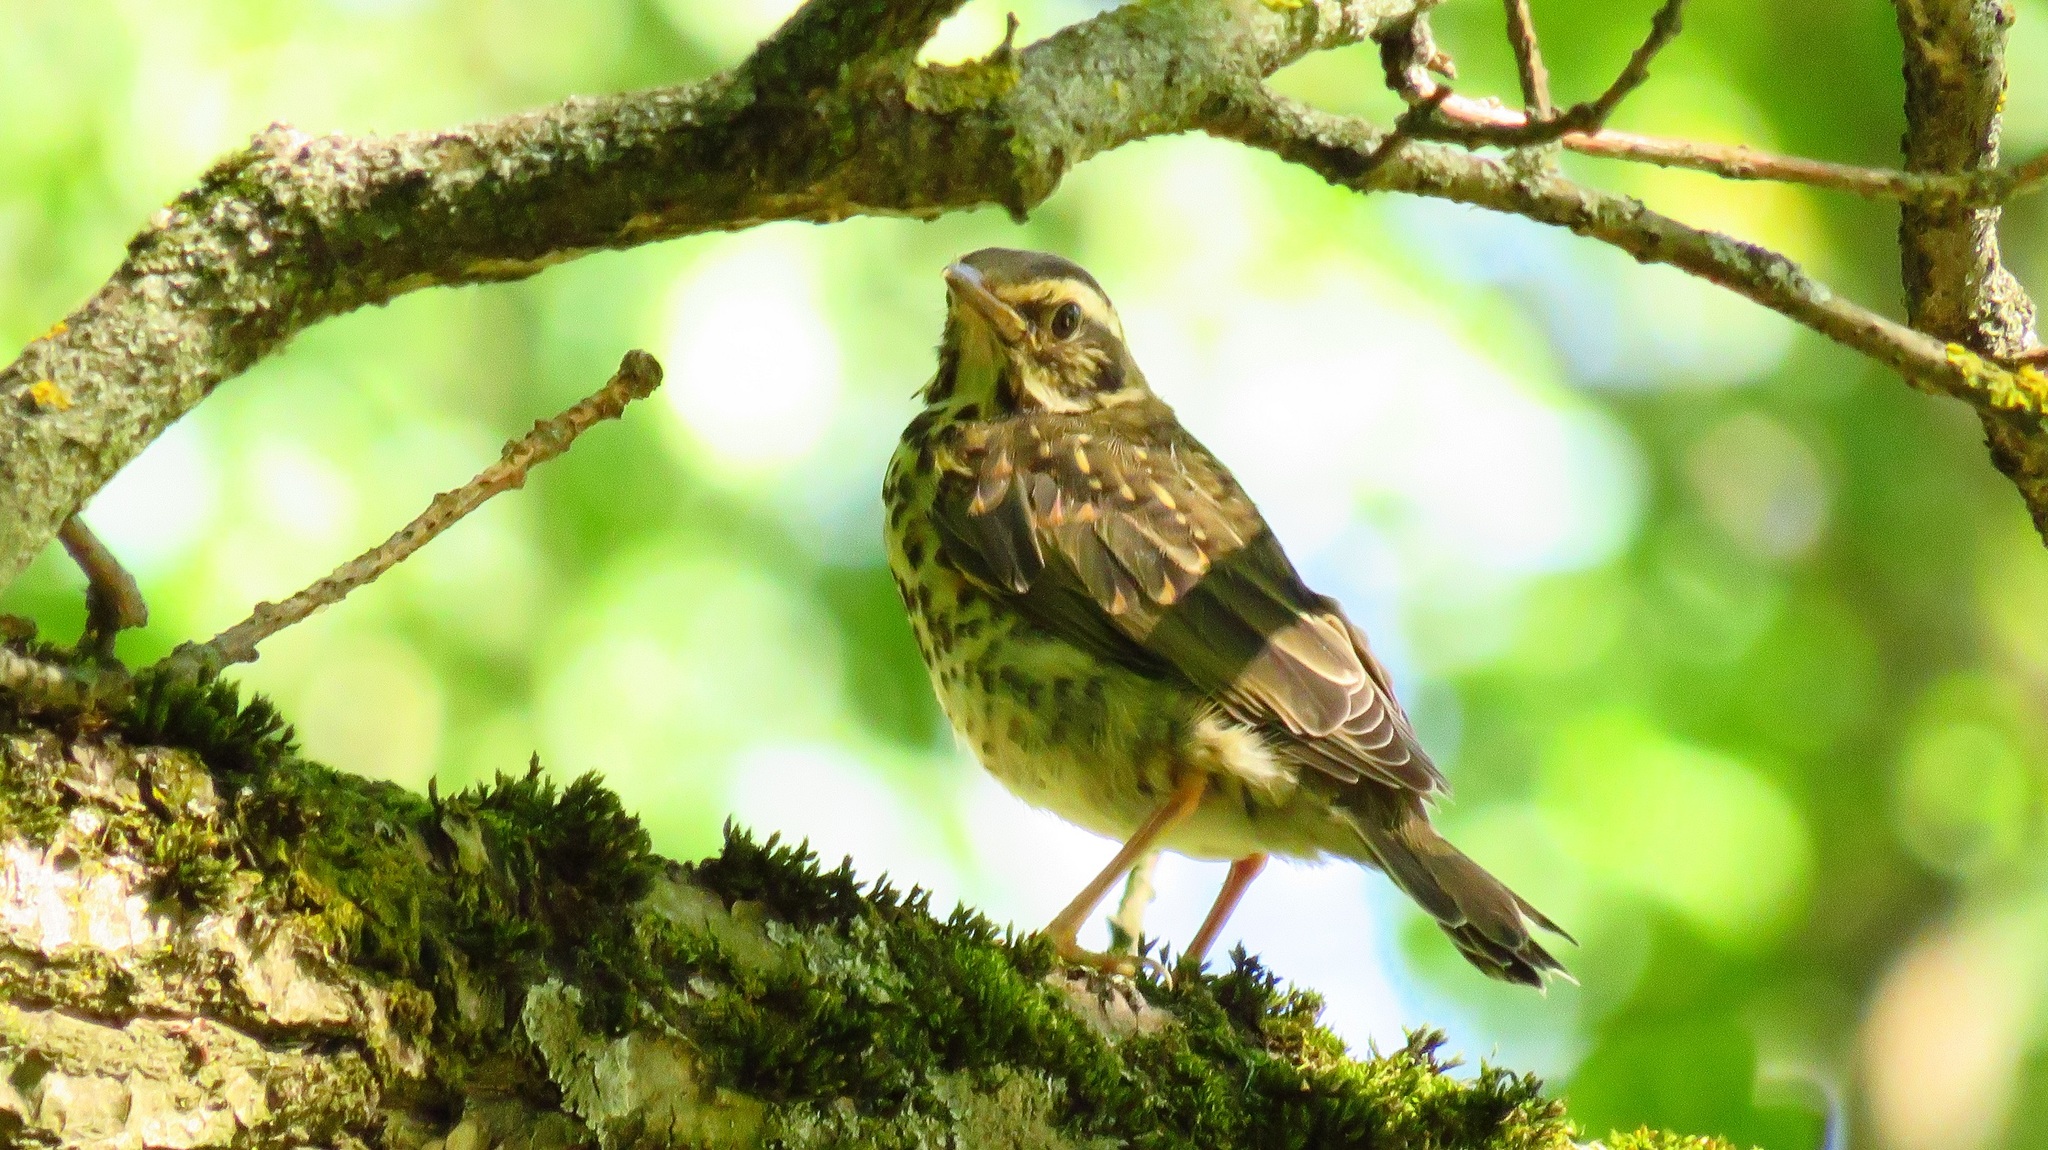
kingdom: Animalia
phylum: Chordata
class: Aves
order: Passeriformes
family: Turdidae
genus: Turdus
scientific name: Turdus iliacus
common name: Redwing
